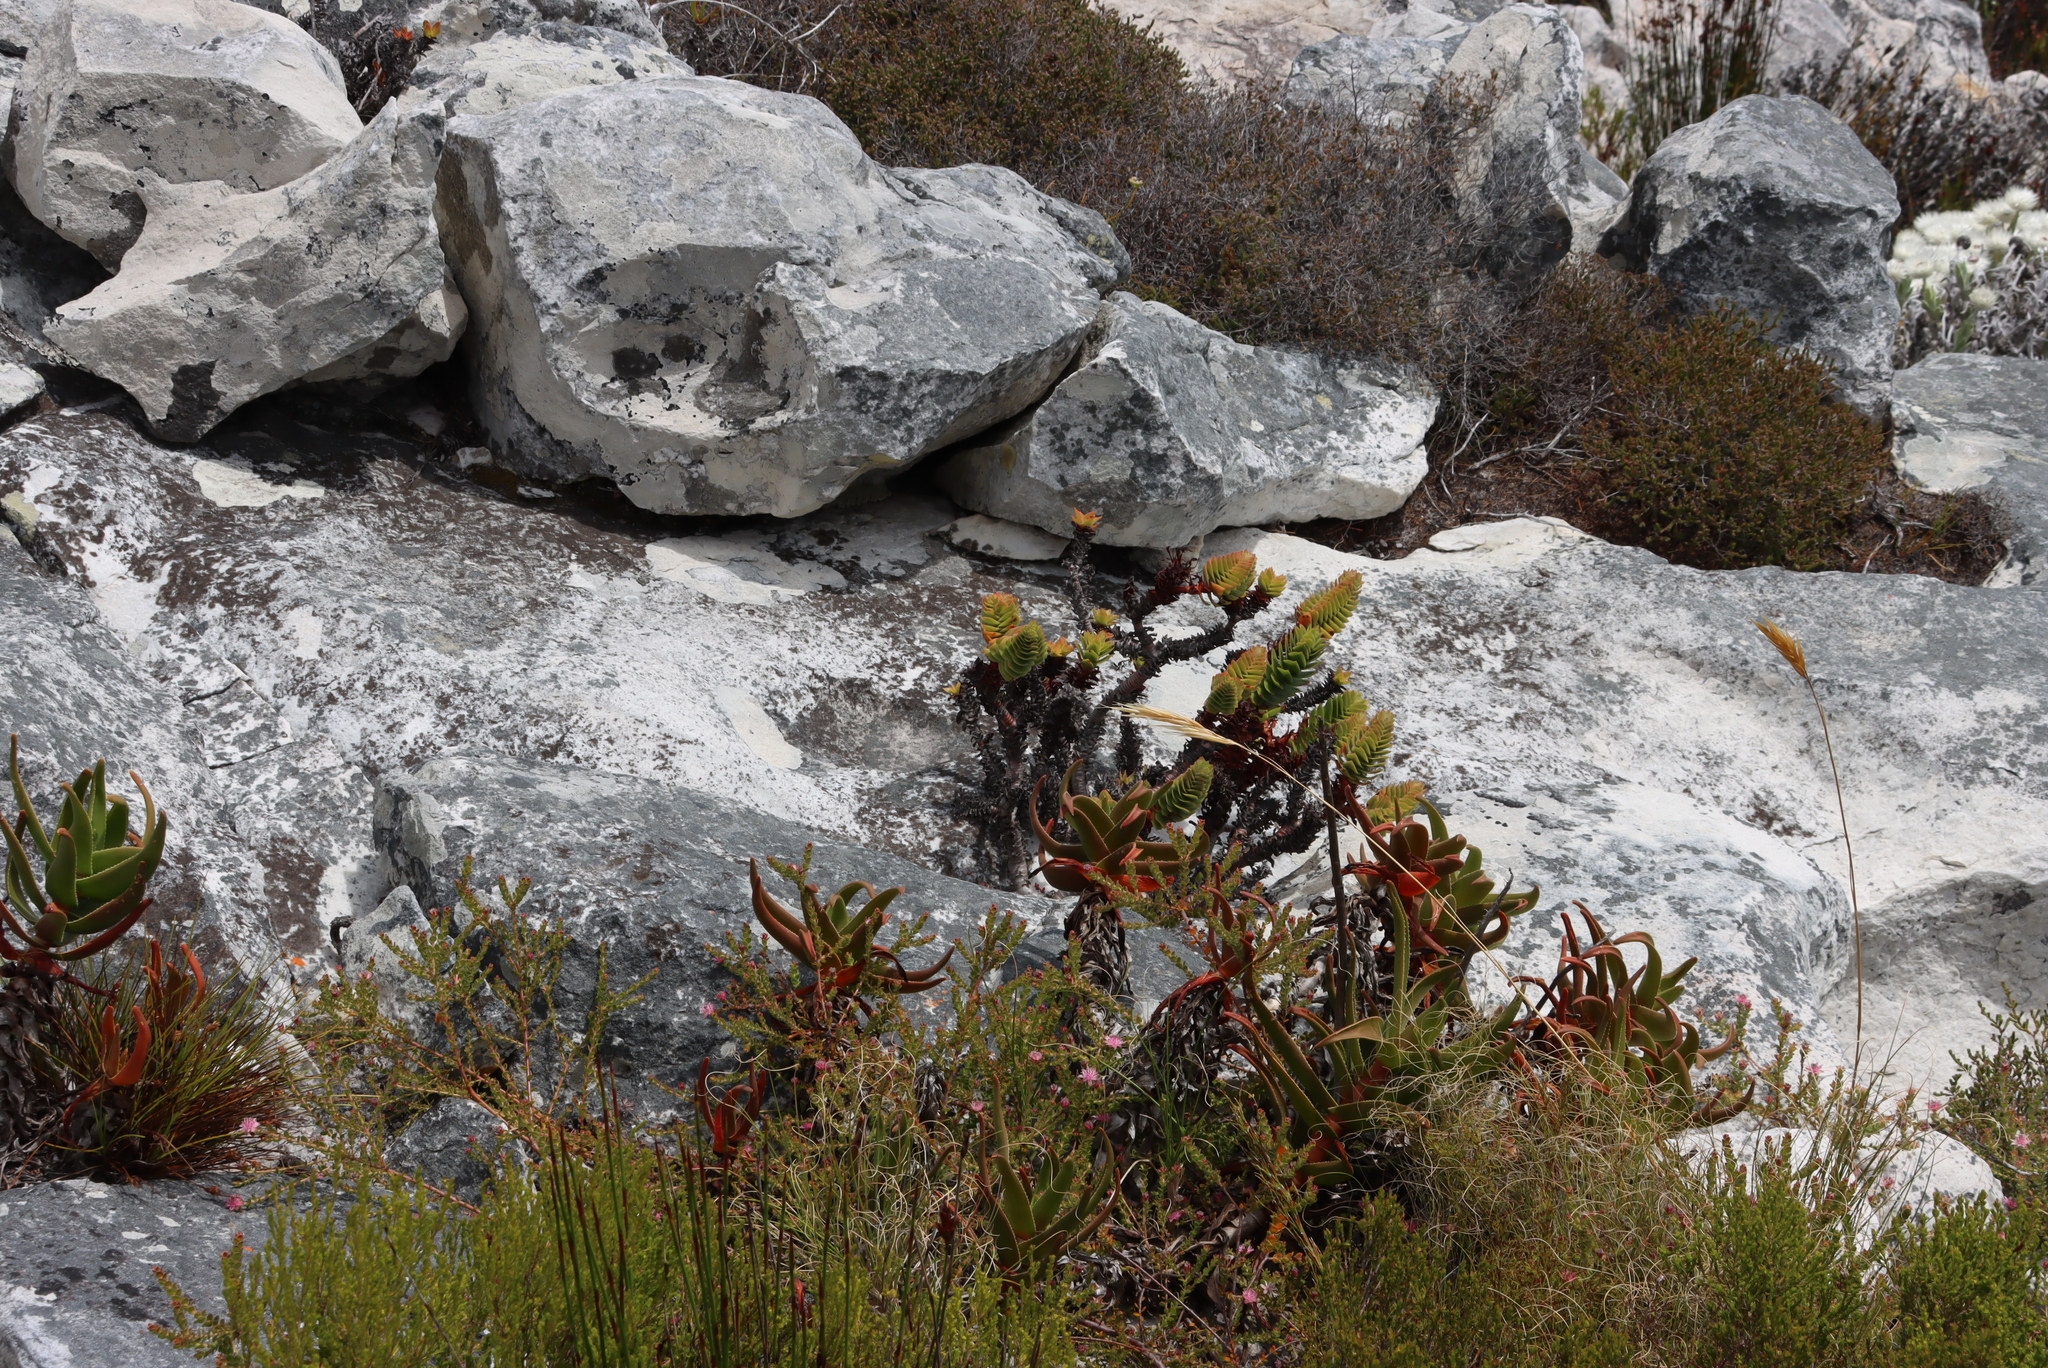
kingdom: Plantae
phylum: Tracheophyta
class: Magnoliopsida
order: Saxifragales
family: Crassulaceae
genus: Crassula
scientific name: Crassula coccinea
